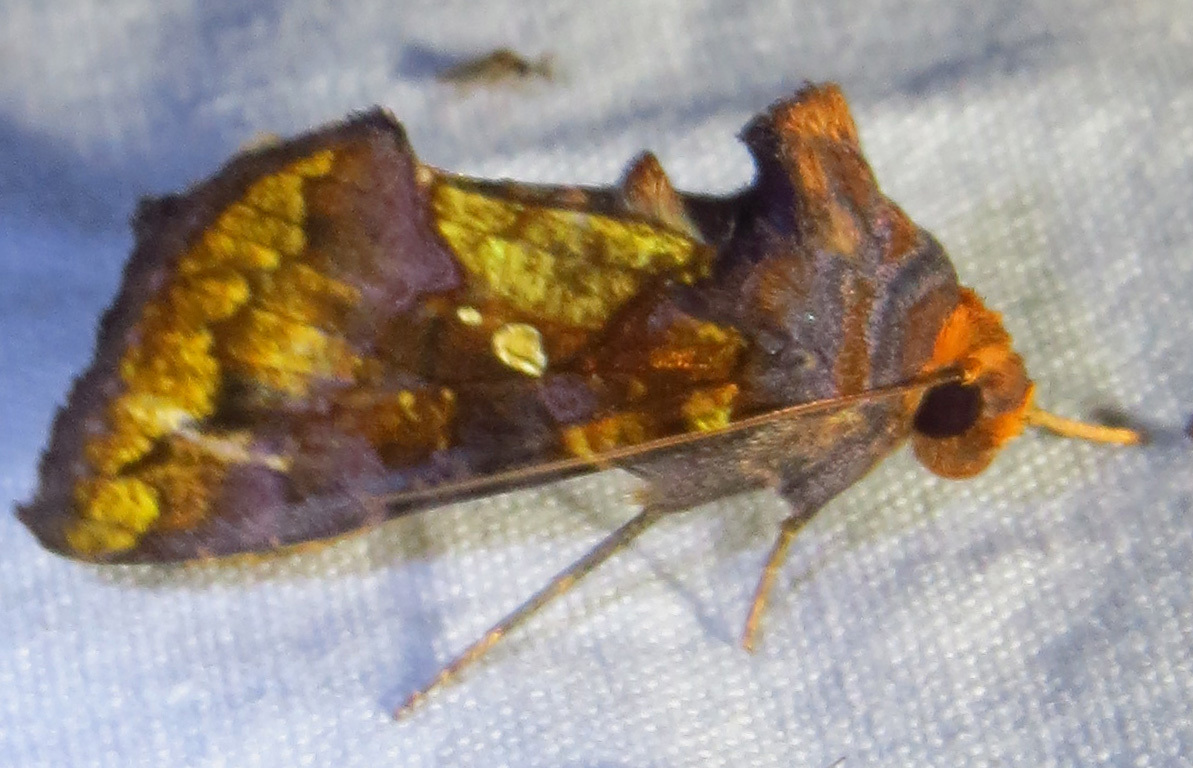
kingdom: Animalia
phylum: Arthropoda
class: Insecta
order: Lepidoptera
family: Noctuidae
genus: Argyrogramma
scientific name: Argyrogramma verruca
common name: Golden looper moth
